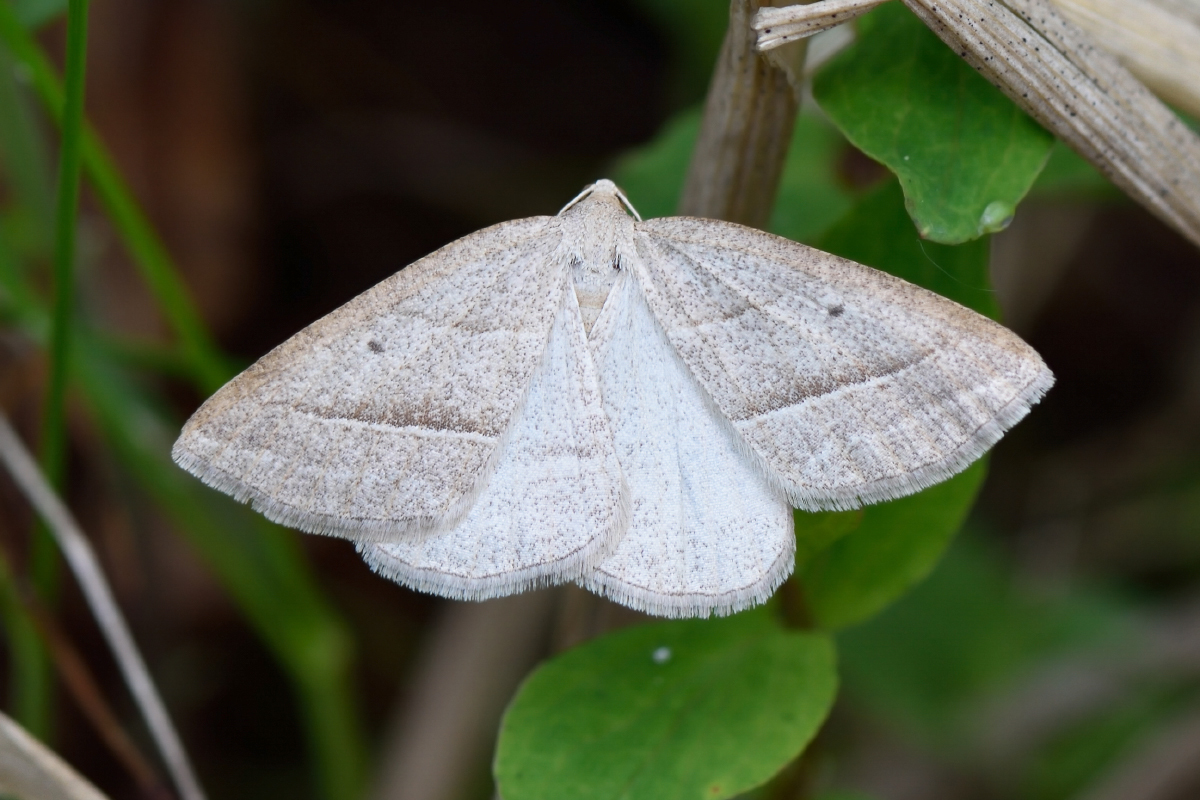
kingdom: Animalia
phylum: Arthropoda
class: Insecta
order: Lepidoptera
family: Pterophoridae
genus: Pterophorus
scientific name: Pterophorus Petrophora chlorosata
